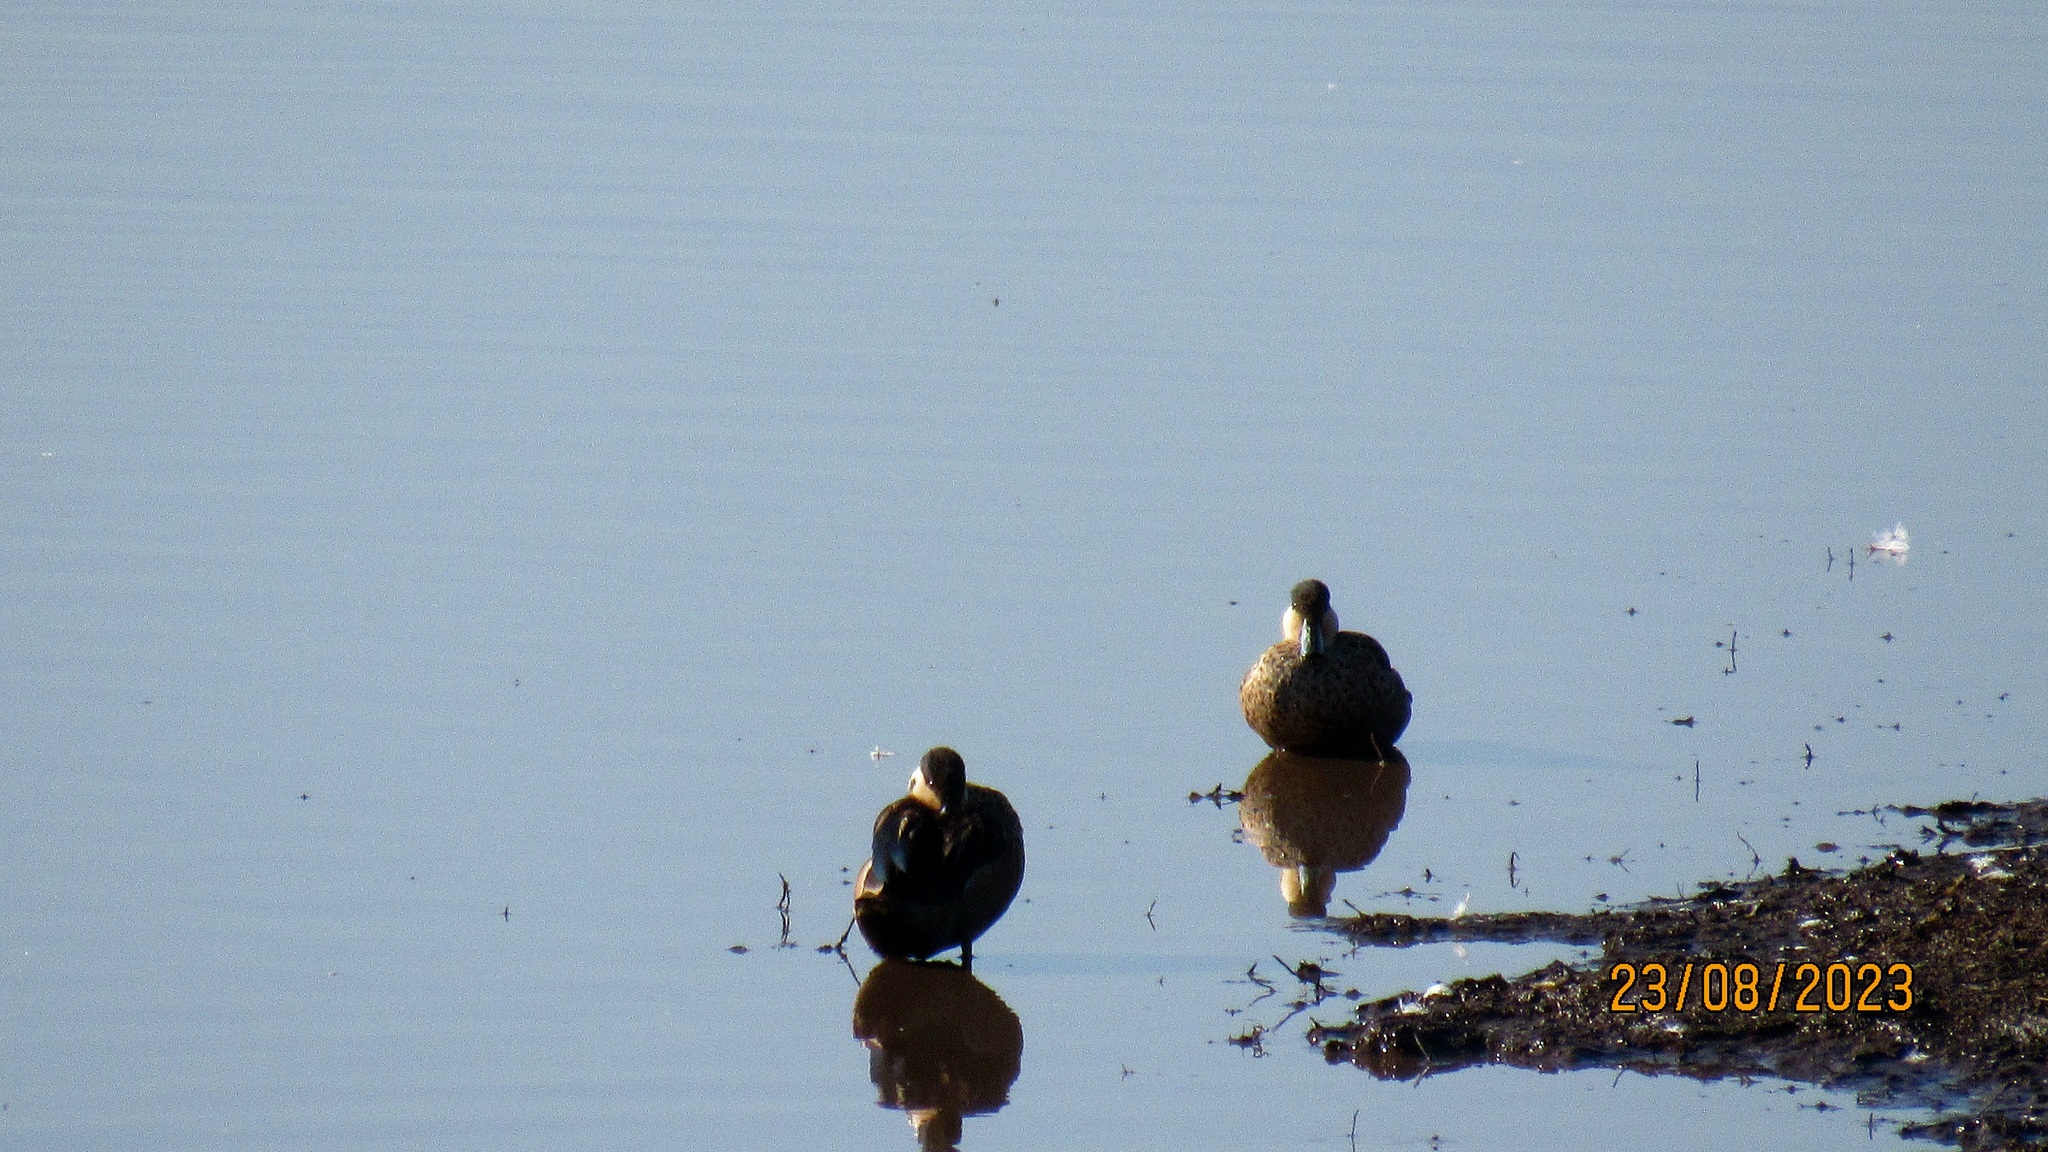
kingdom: Animalia
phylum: Chordata
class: Aves
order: Anseriformes
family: Anatidae
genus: Spatula
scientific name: Spatula hottentota
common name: Blue-billed teal
